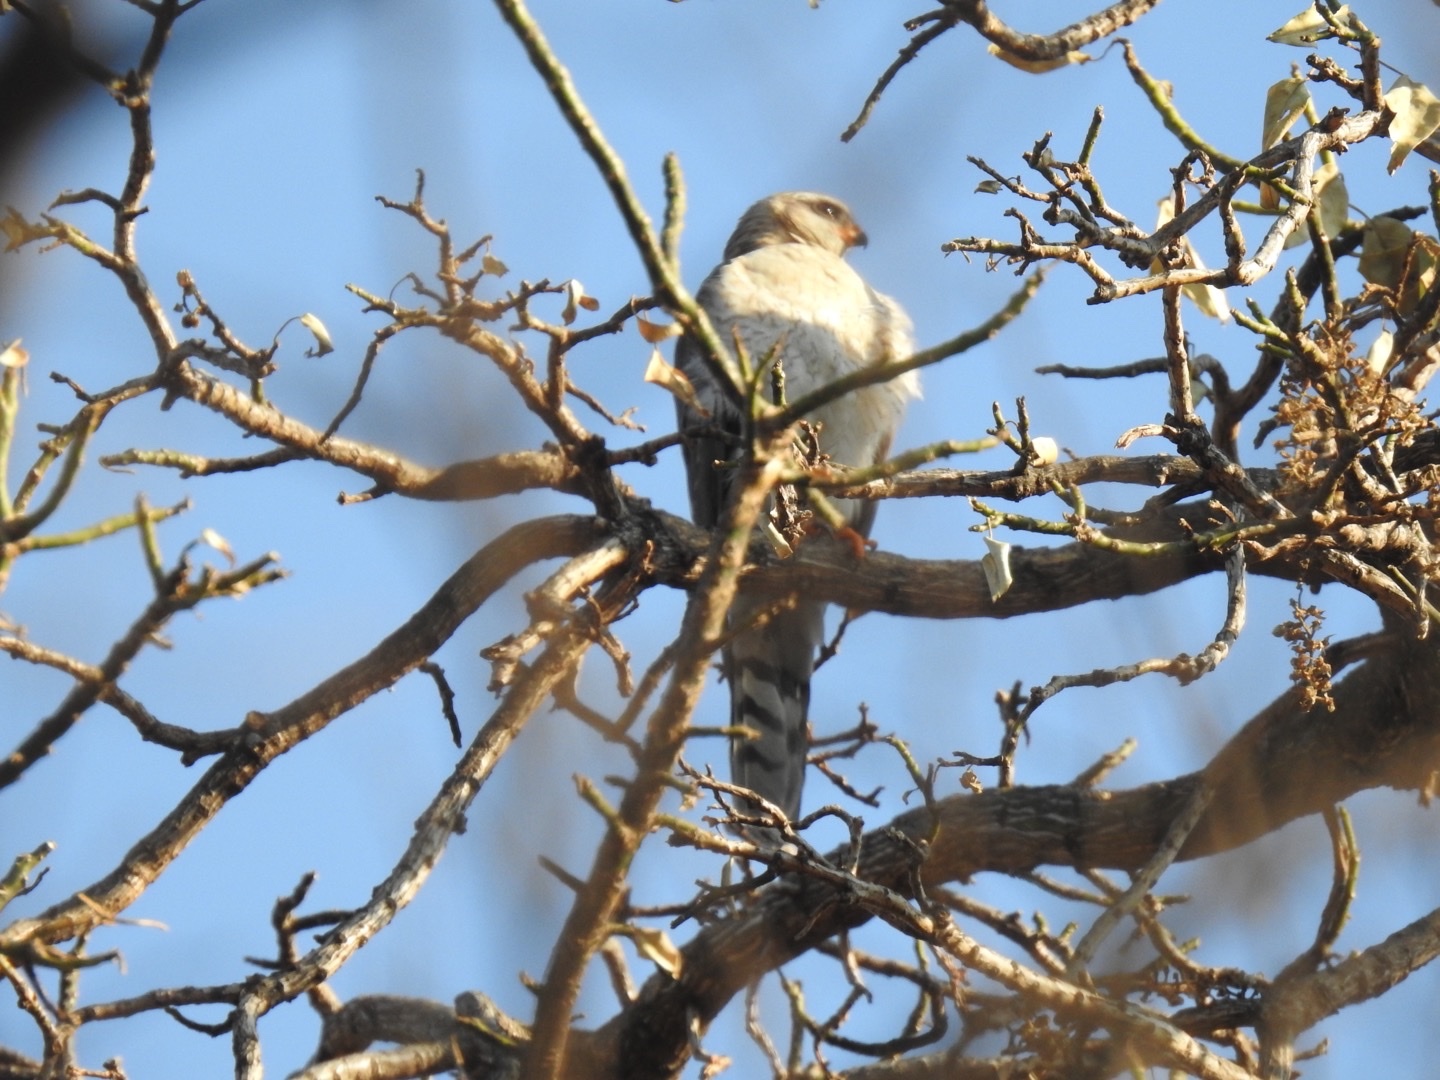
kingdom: Animalia
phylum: Chordata
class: Aves
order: Accipitriformes
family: Accipitridae
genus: Accipiter
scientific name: Accipiter ovampensis
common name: Ovambo sparrowhawk
